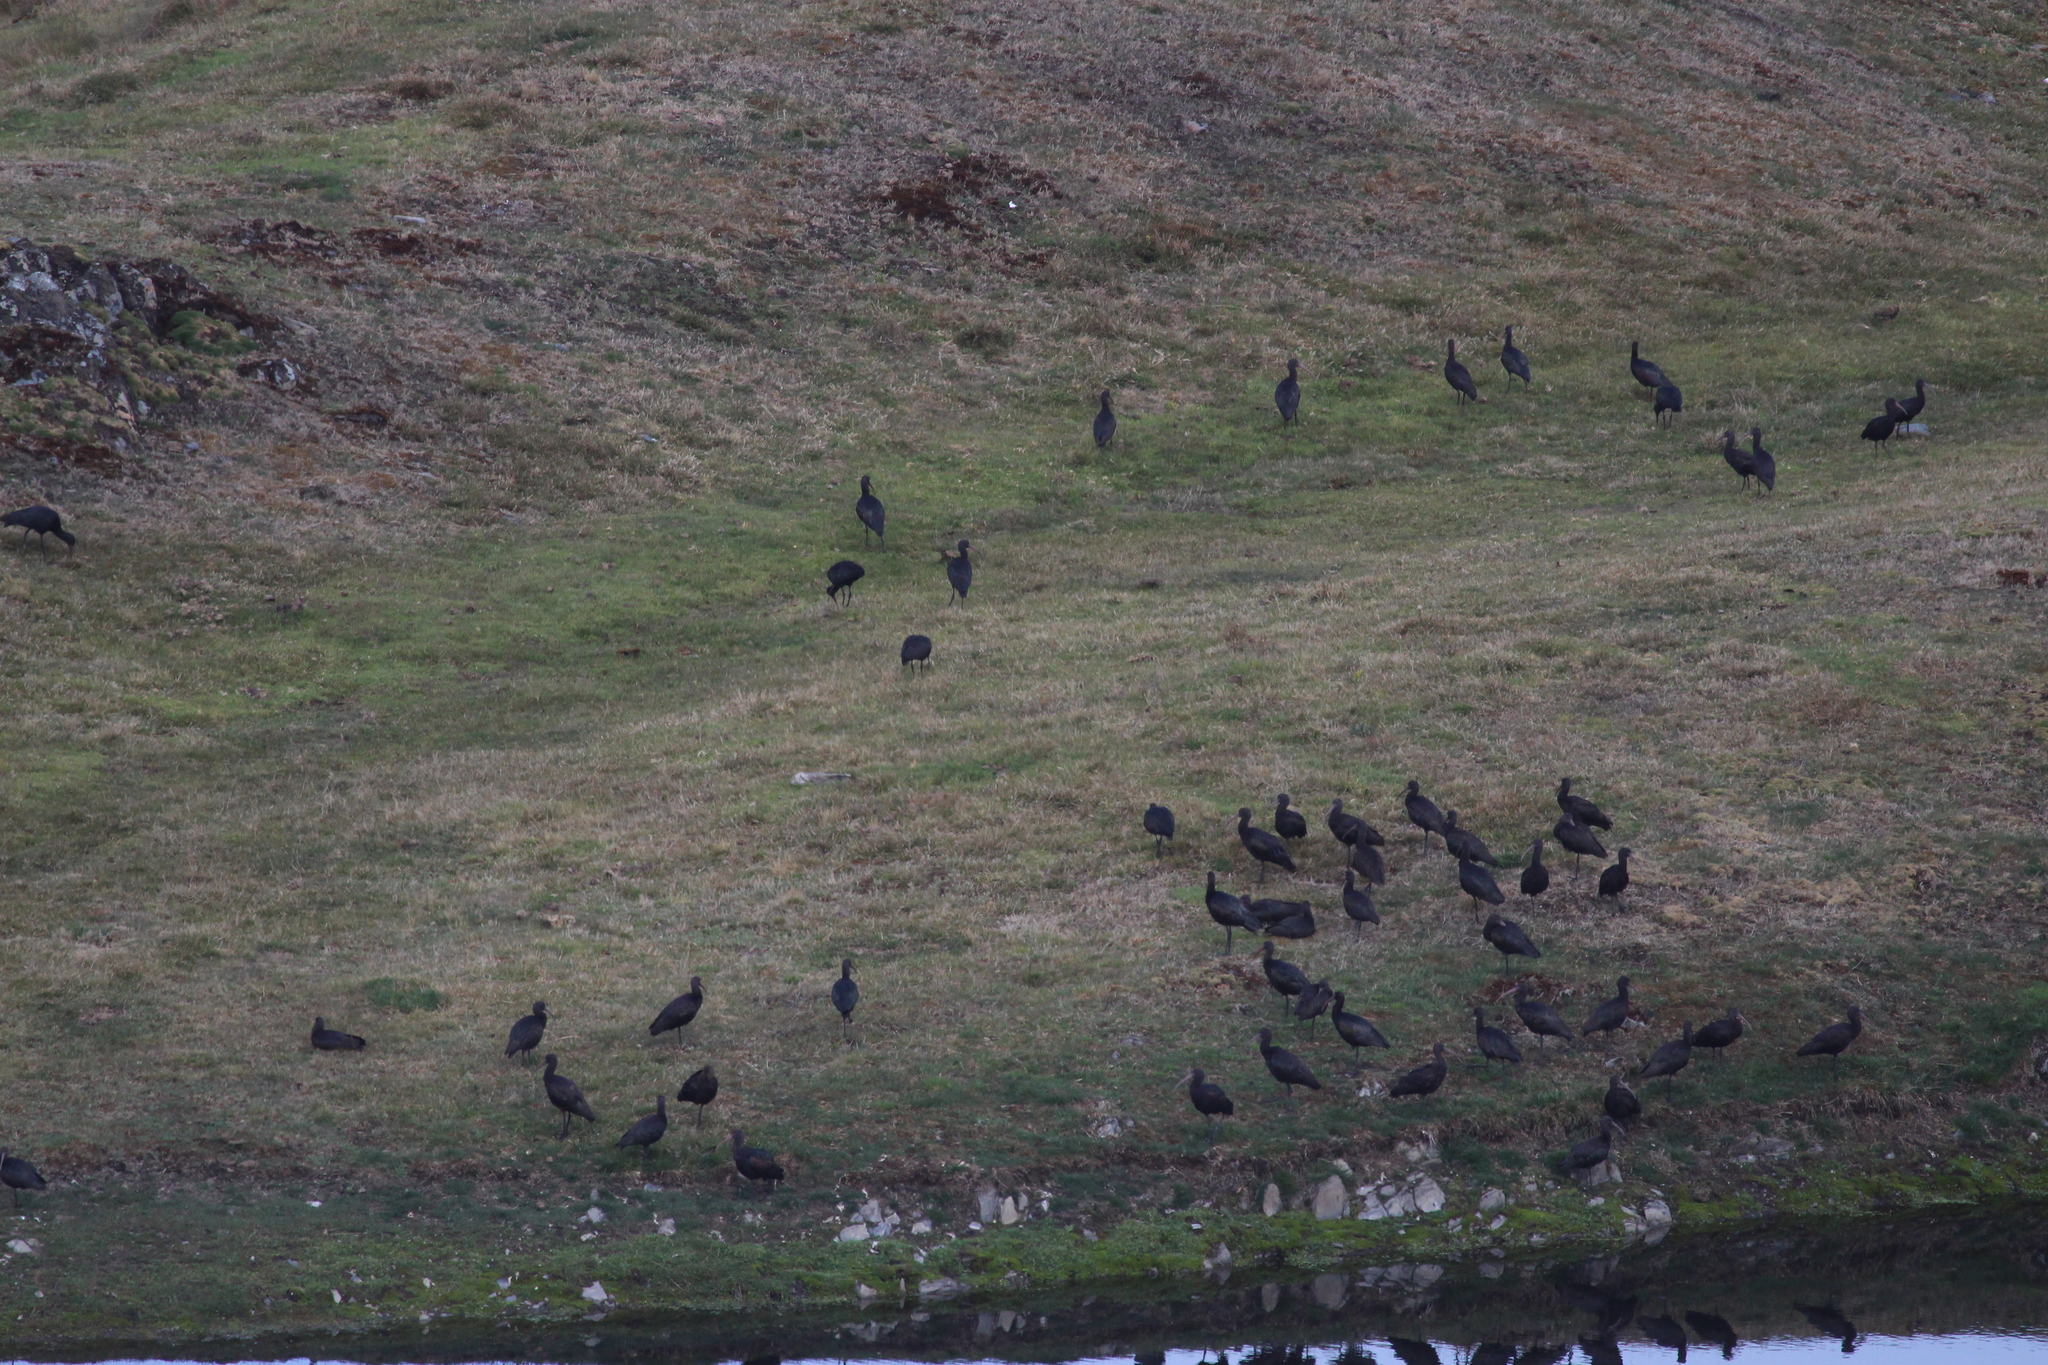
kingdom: Animalia
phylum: Chordata
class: Aves
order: Pelecaniformes
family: Threskiornithidae
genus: Plegadis
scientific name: Plegadis ridgwayi
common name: Puna ibis
